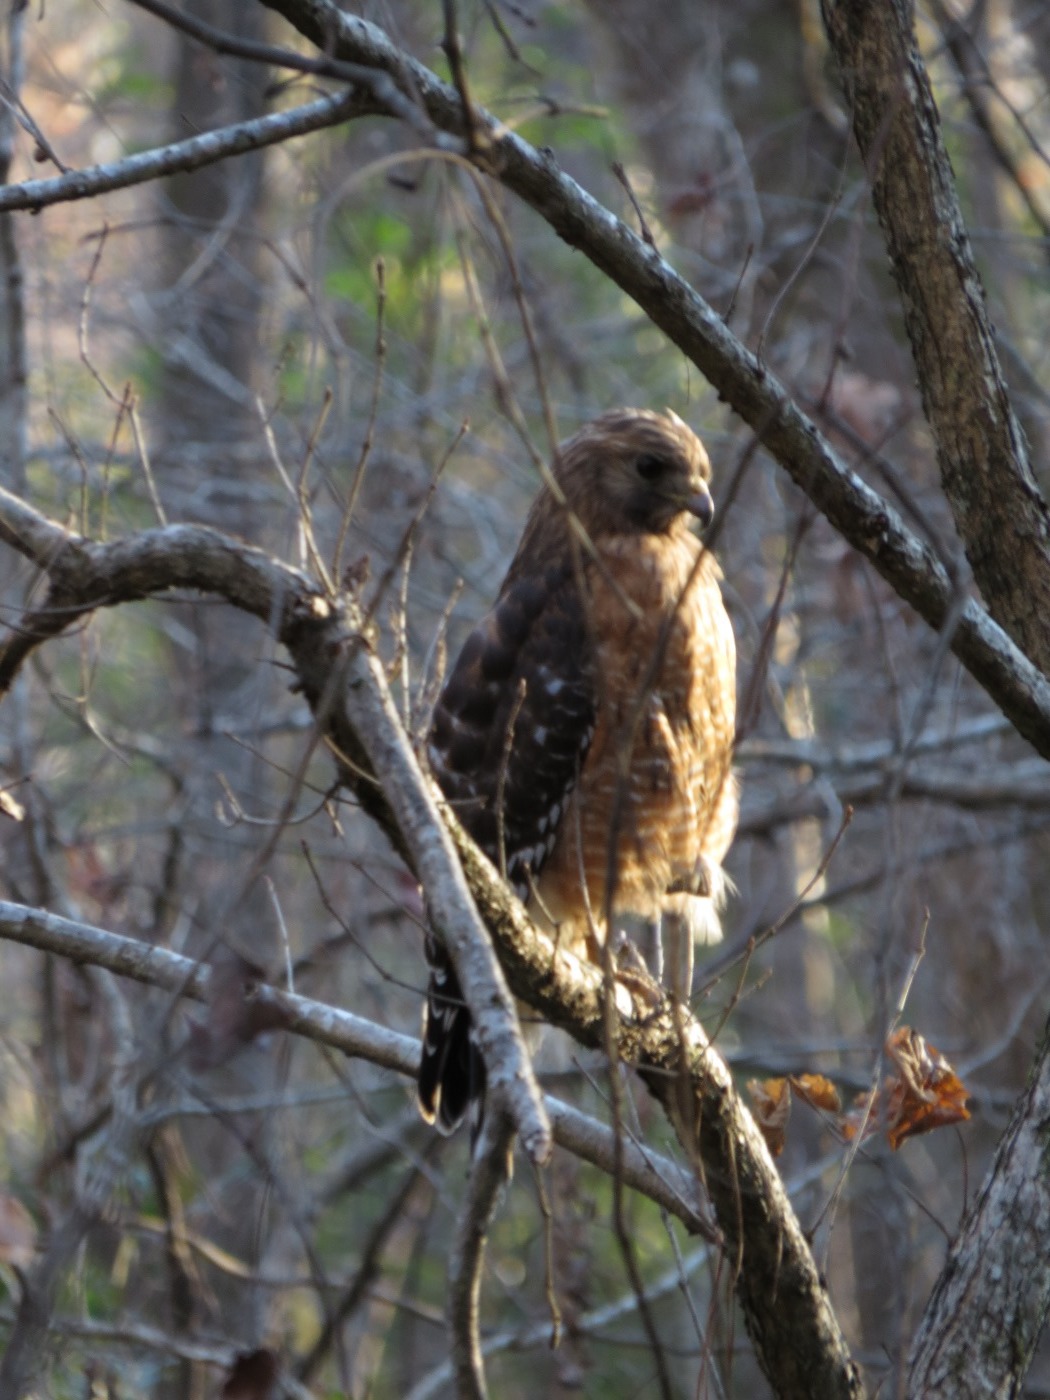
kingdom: Animalia
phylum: Chordata
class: Aves
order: Accipitriformes
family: Accipitridae
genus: Buteo
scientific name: Buteo lineatus
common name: Red-shouldered hawk
